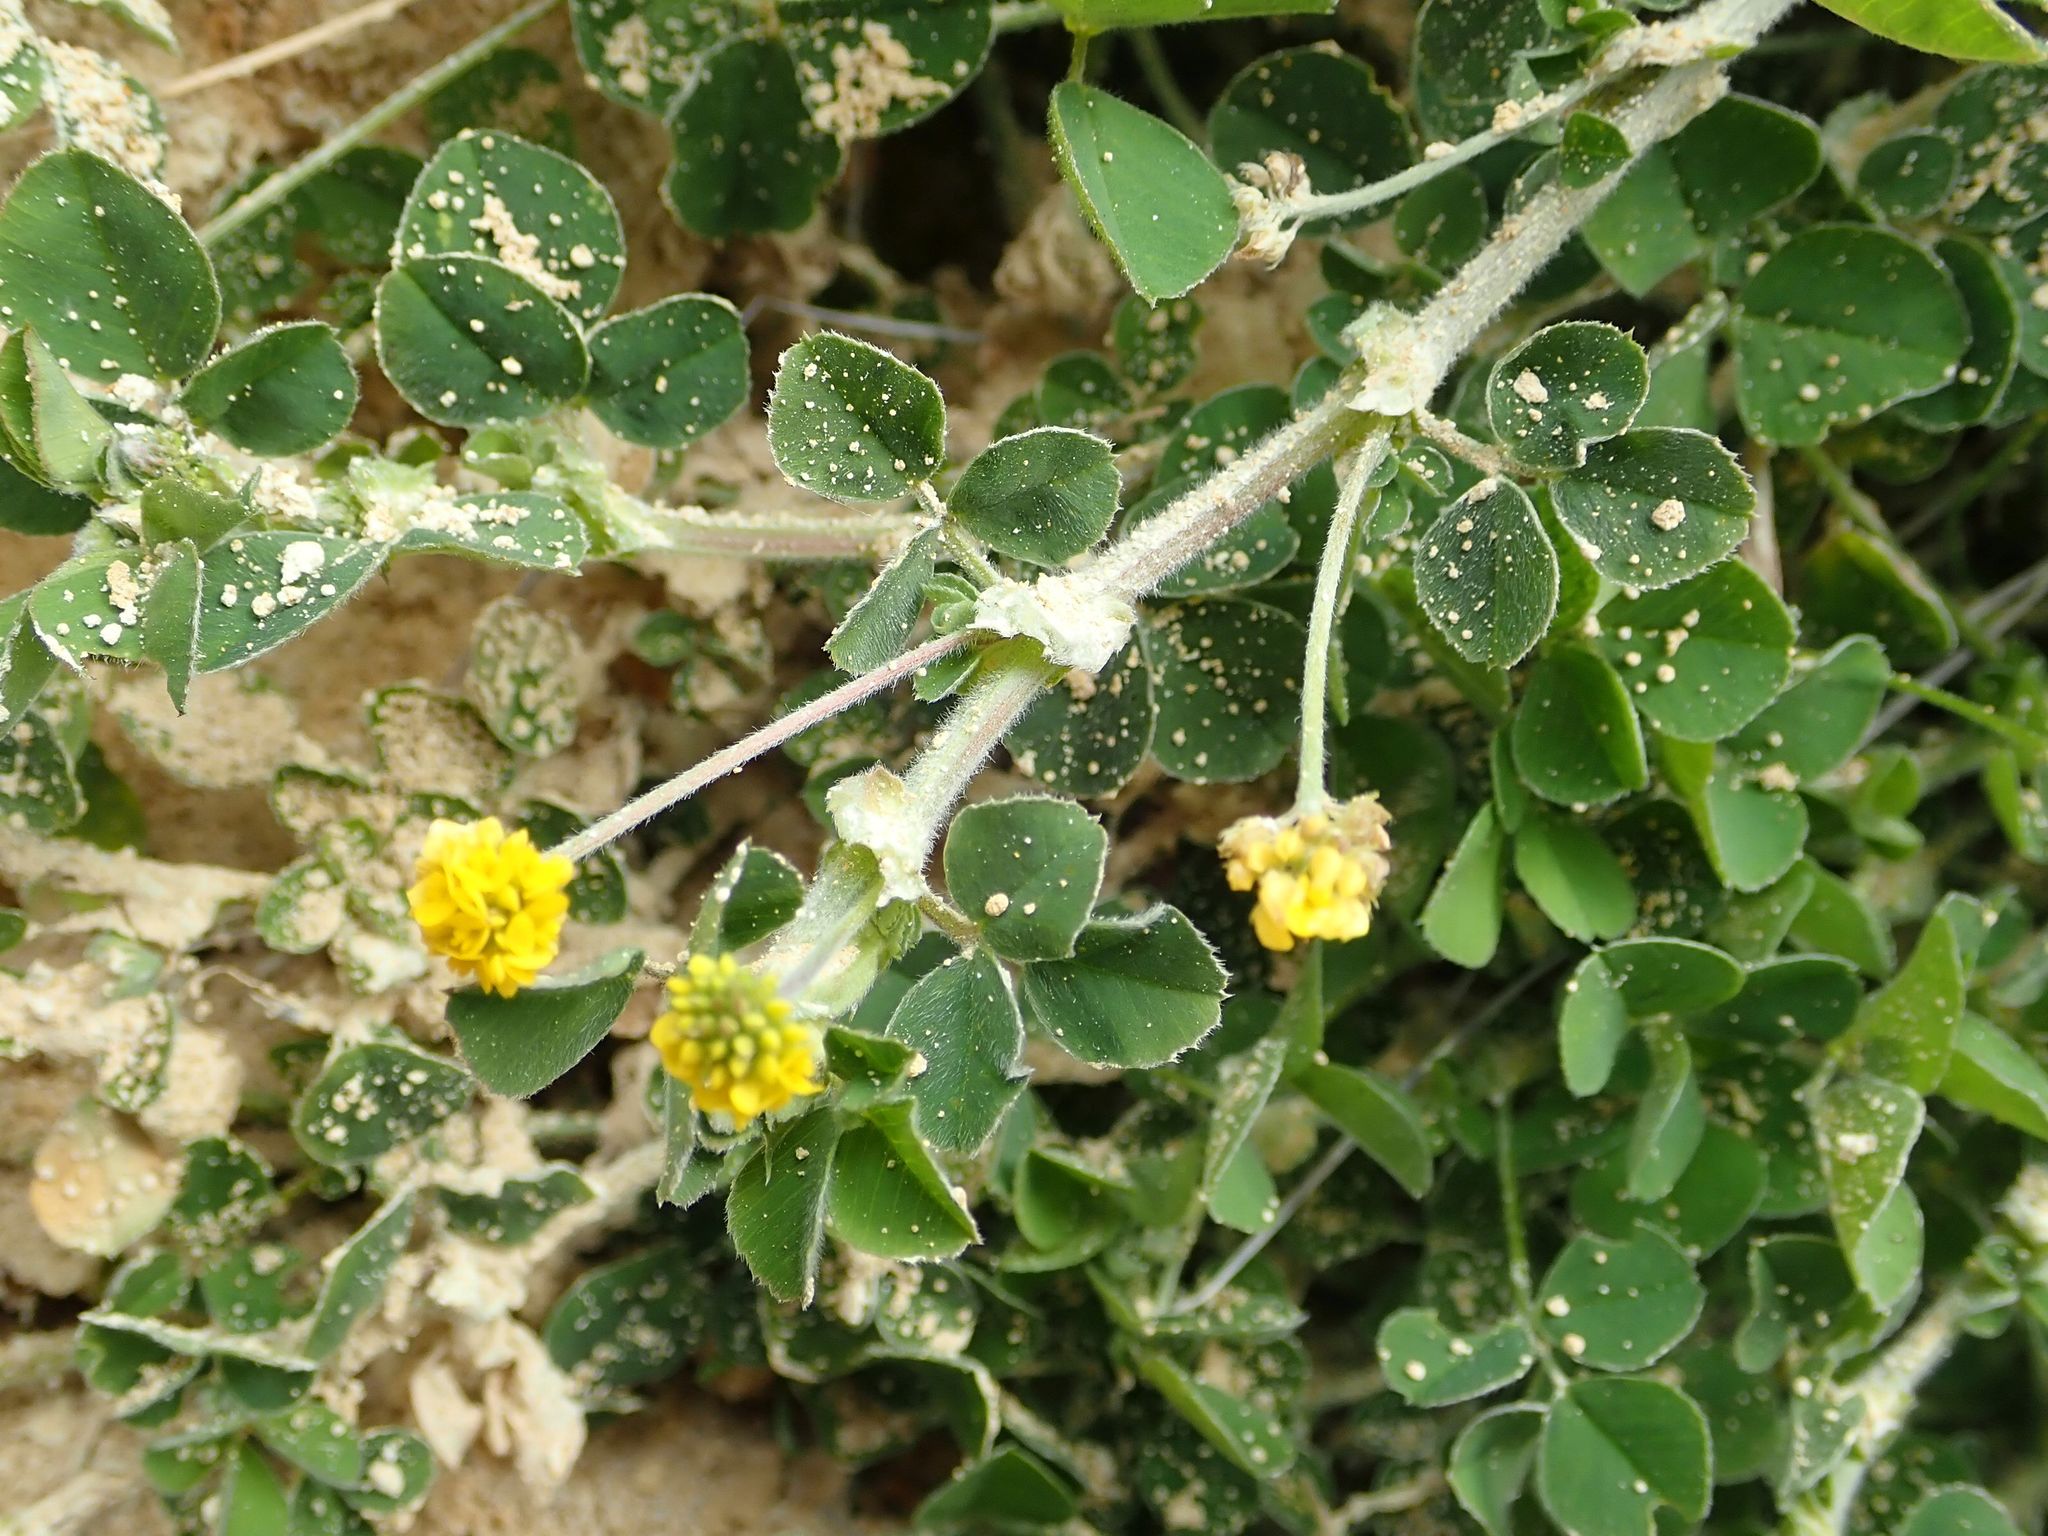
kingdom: Plantae
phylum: Tracheophyta
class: Magnoliopsida
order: Fabales
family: Fabaceae
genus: Medicago
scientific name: Medicago lupulina
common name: Black medick
